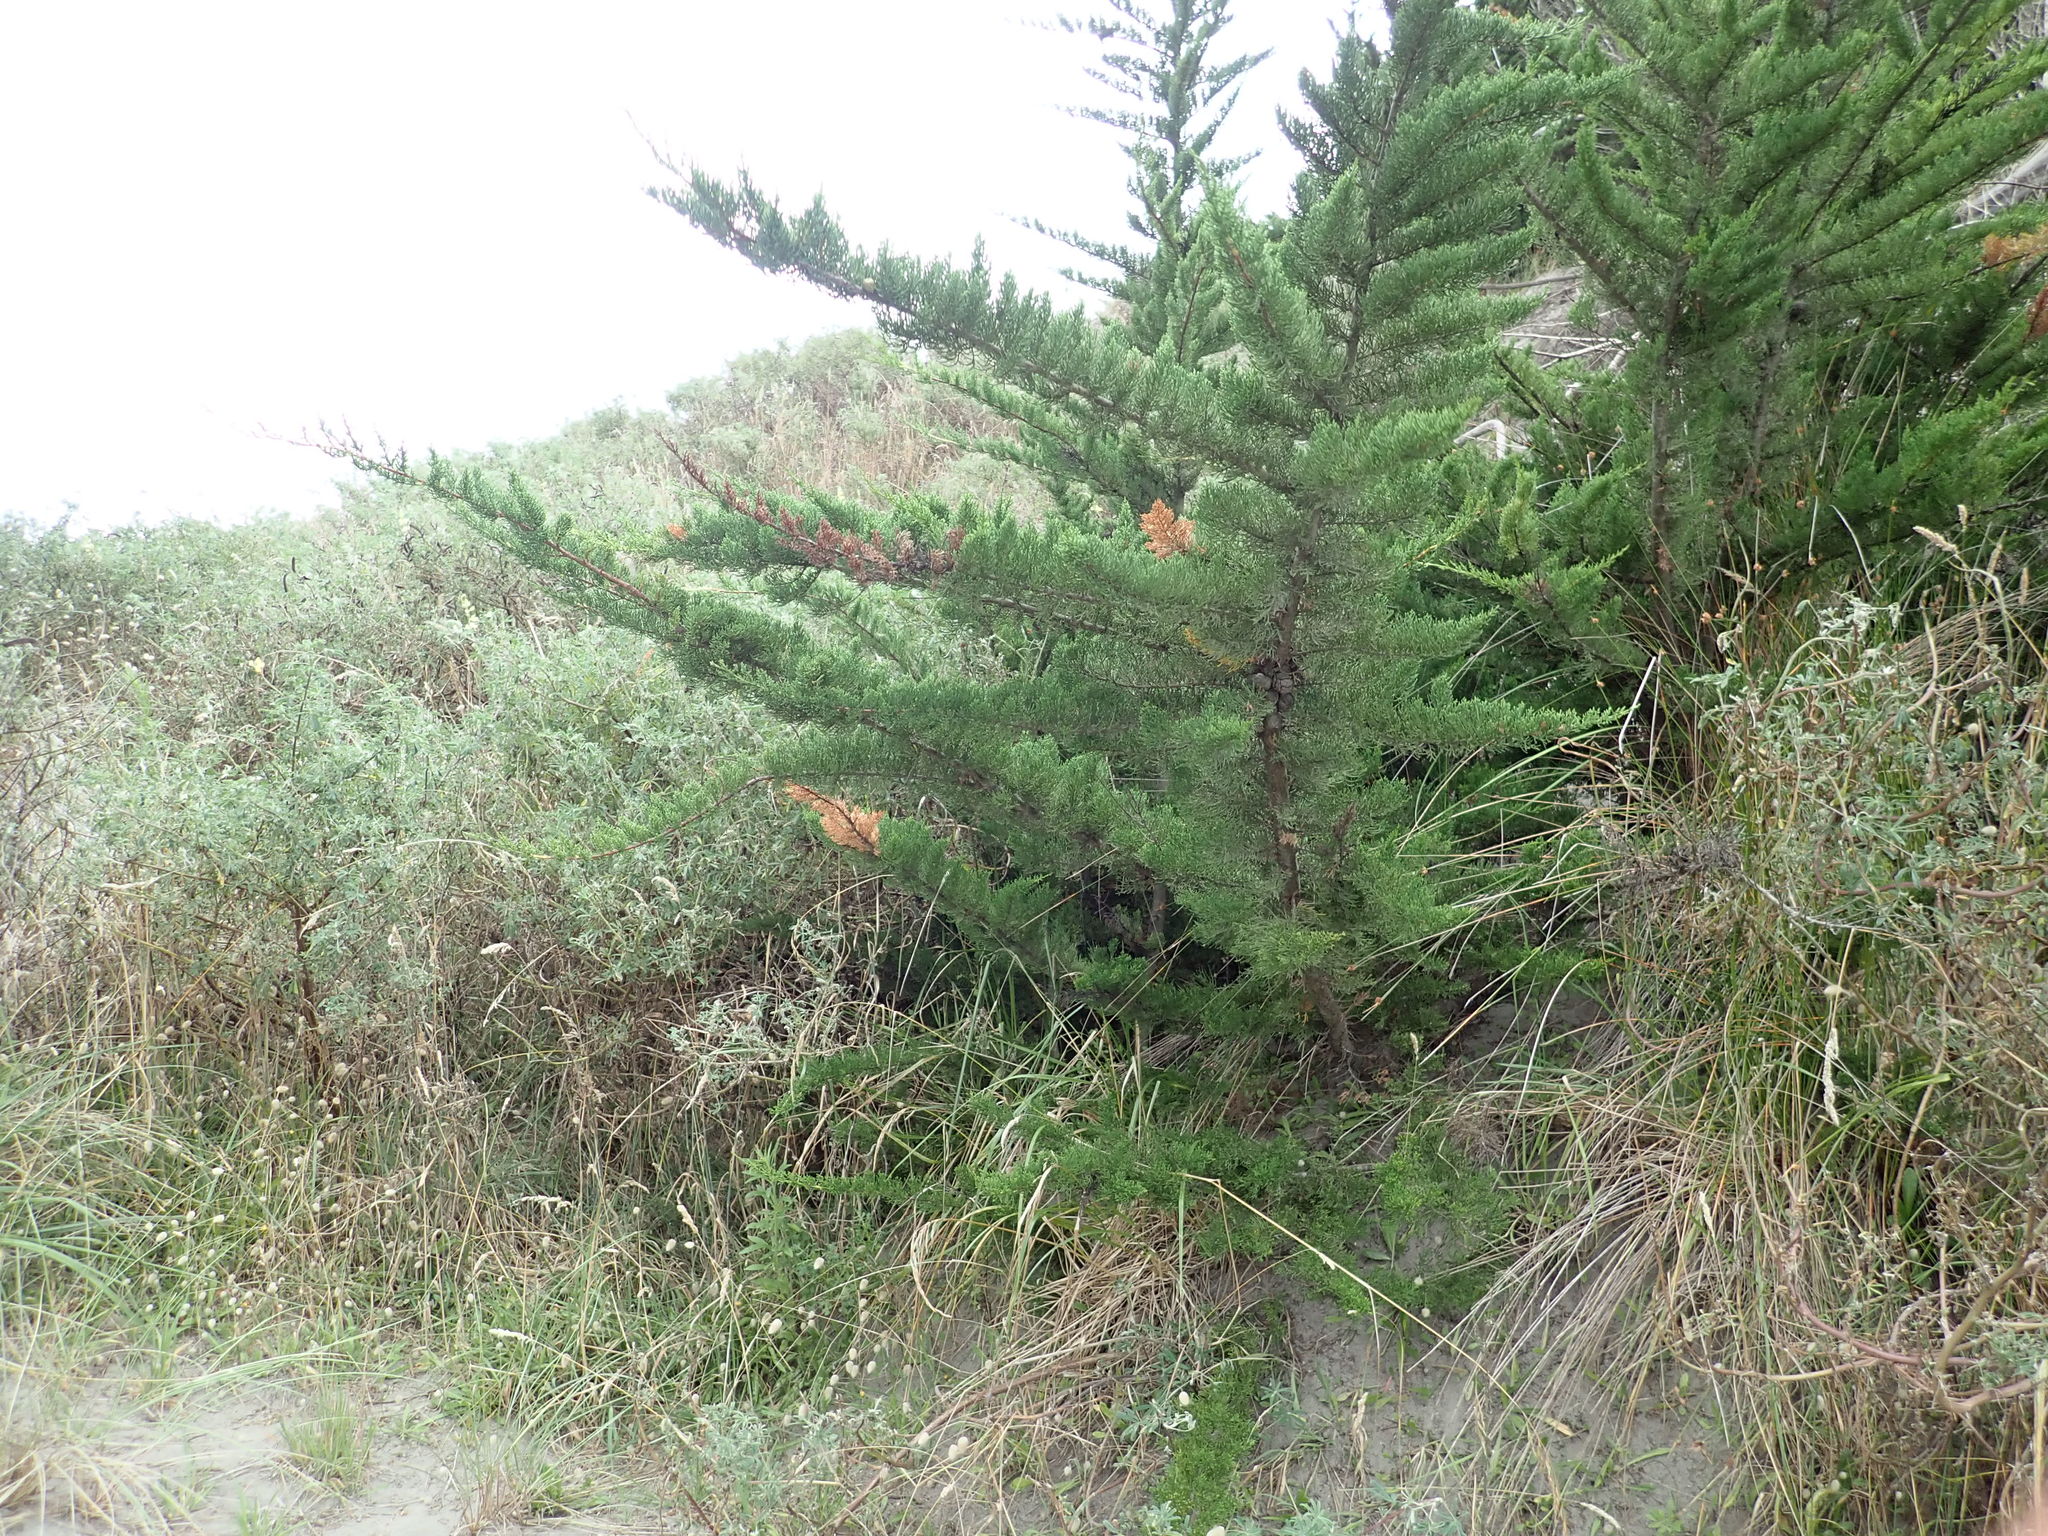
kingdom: Plantae
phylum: Tracheophyta
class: Pinopsida
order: Pinales
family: Cupressaceae
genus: Cupressus
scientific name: Cupressus macrocarpa
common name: Monterey cypress
